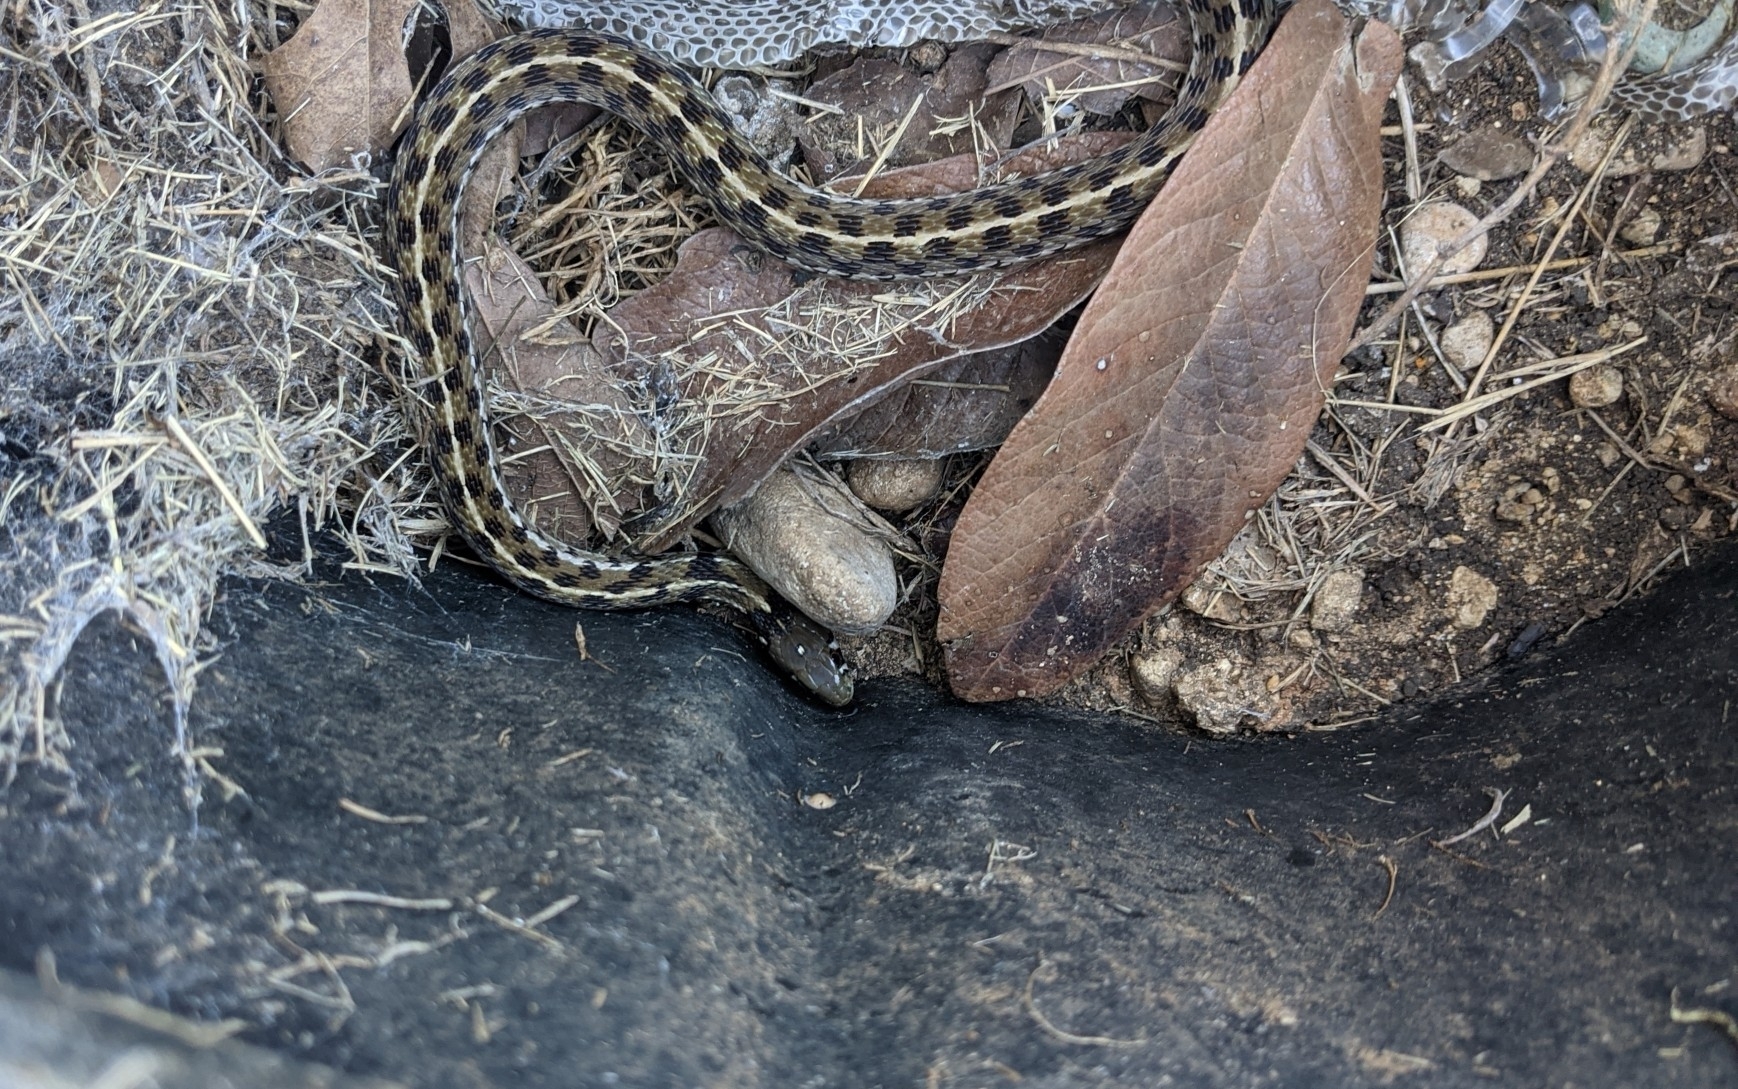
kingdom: Animalia
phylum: Chordata
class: Squamata
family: Colubridae
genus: Thamnophis
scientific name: Thamnophis marcianus
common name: Checkered garter snake
